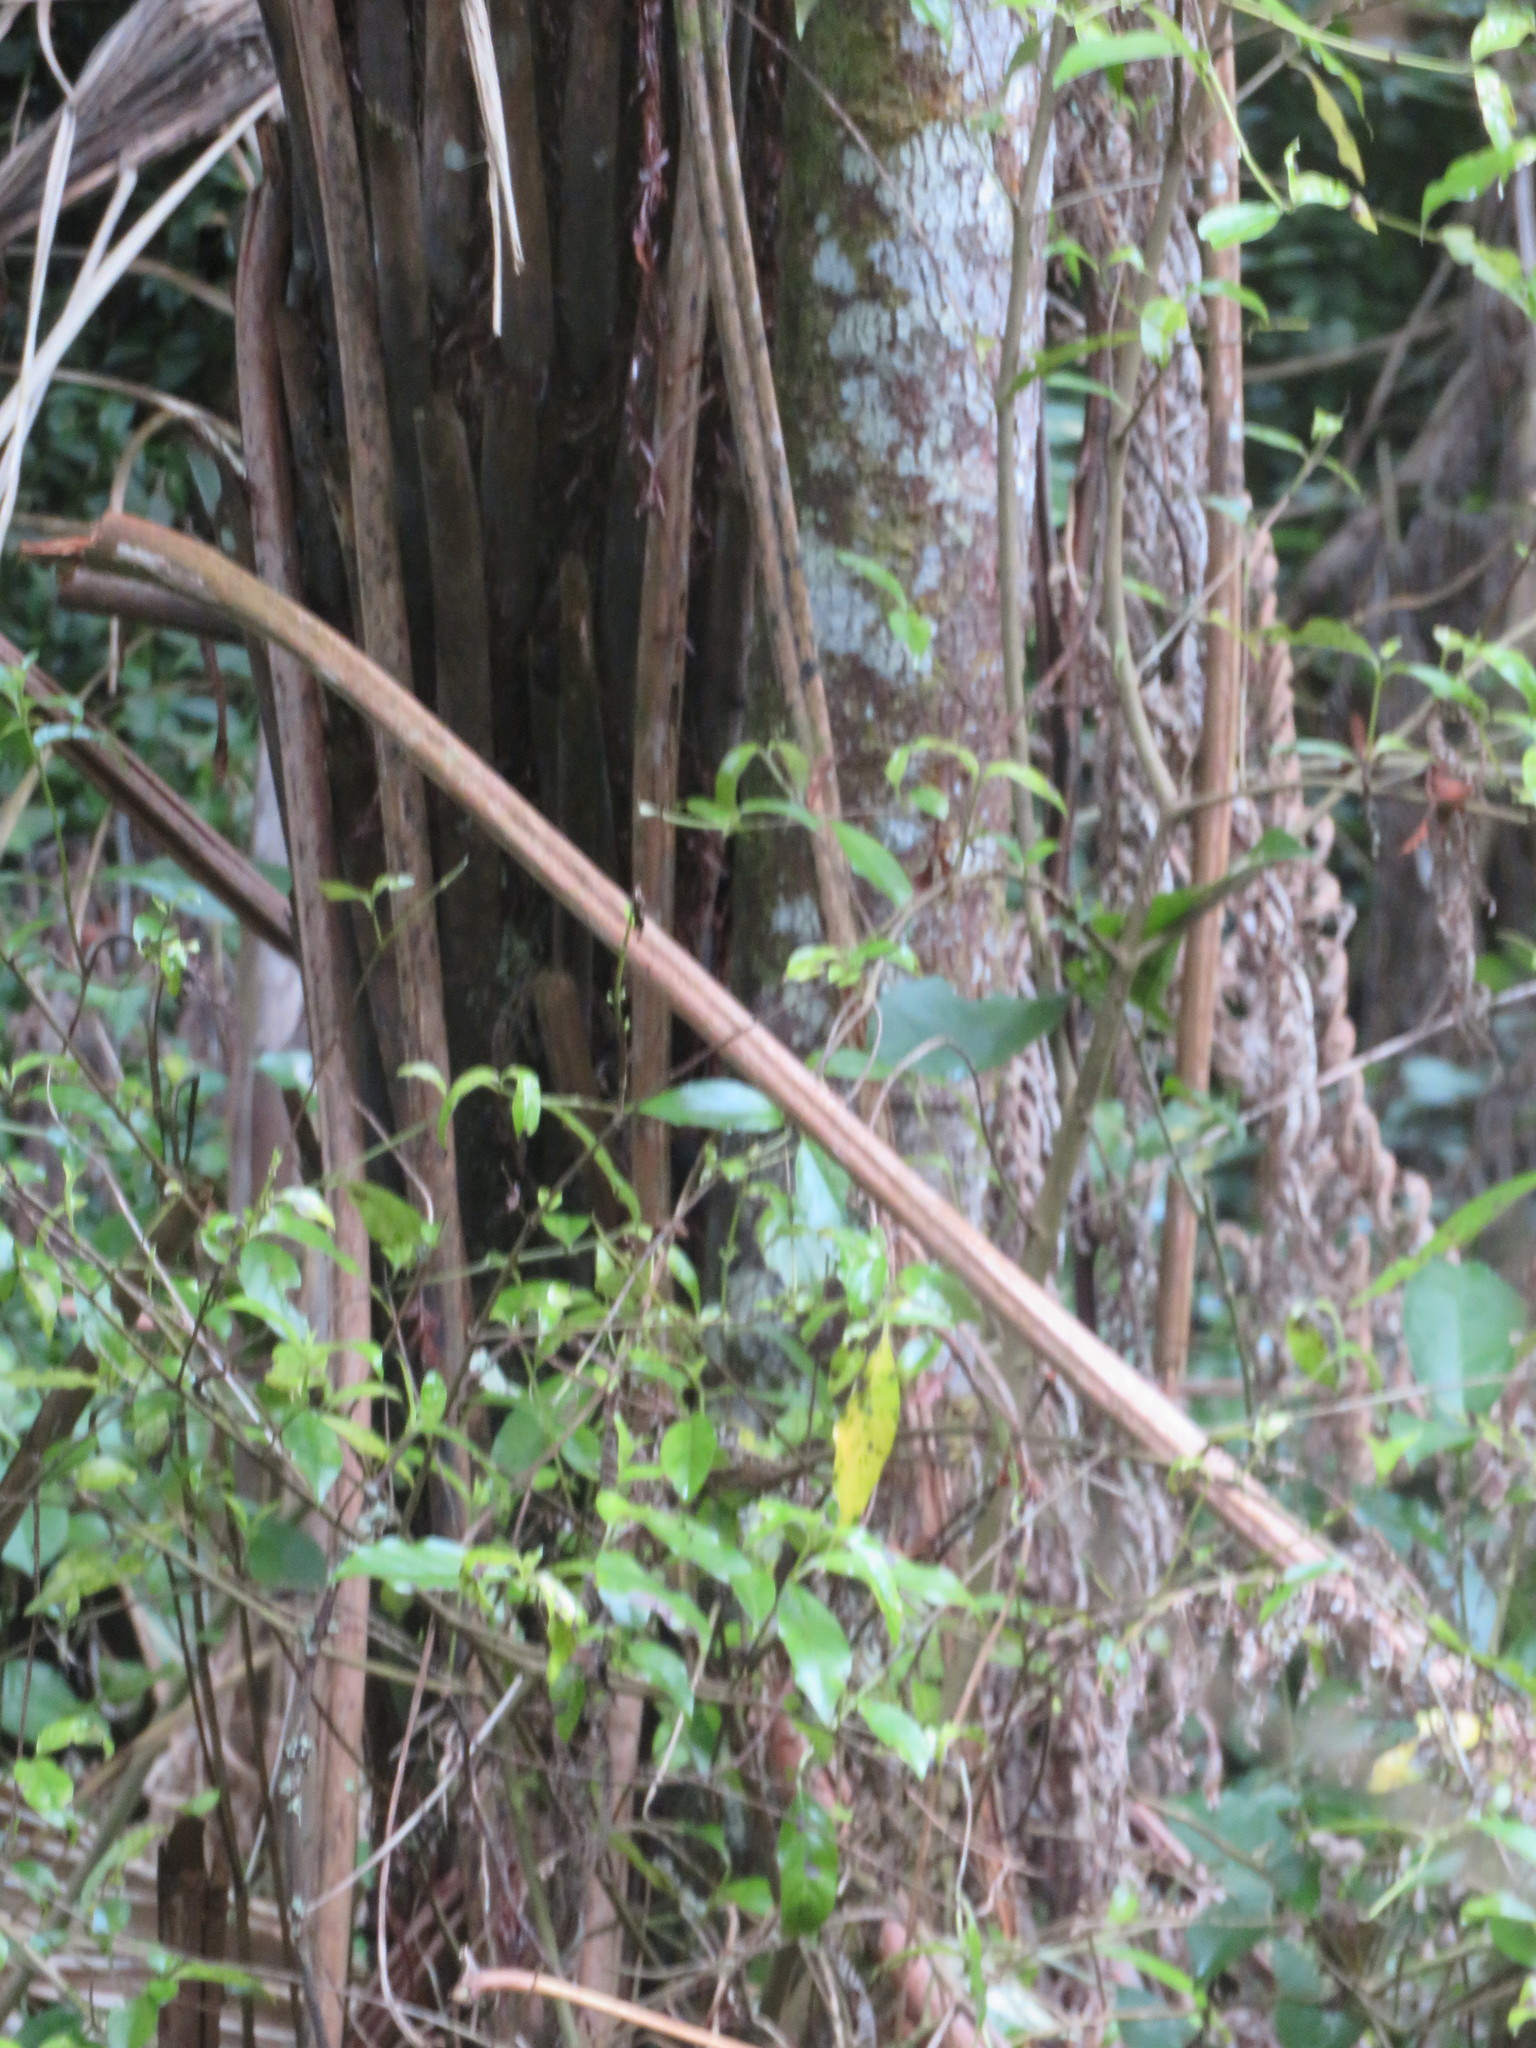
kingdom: Plantae
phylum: Tracheophyta
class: Pinopsida
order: Pinales
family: Phyllocladaceae
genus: Phyllocladus
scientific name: Phyllocladus trichomanoides
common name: Celery pine
